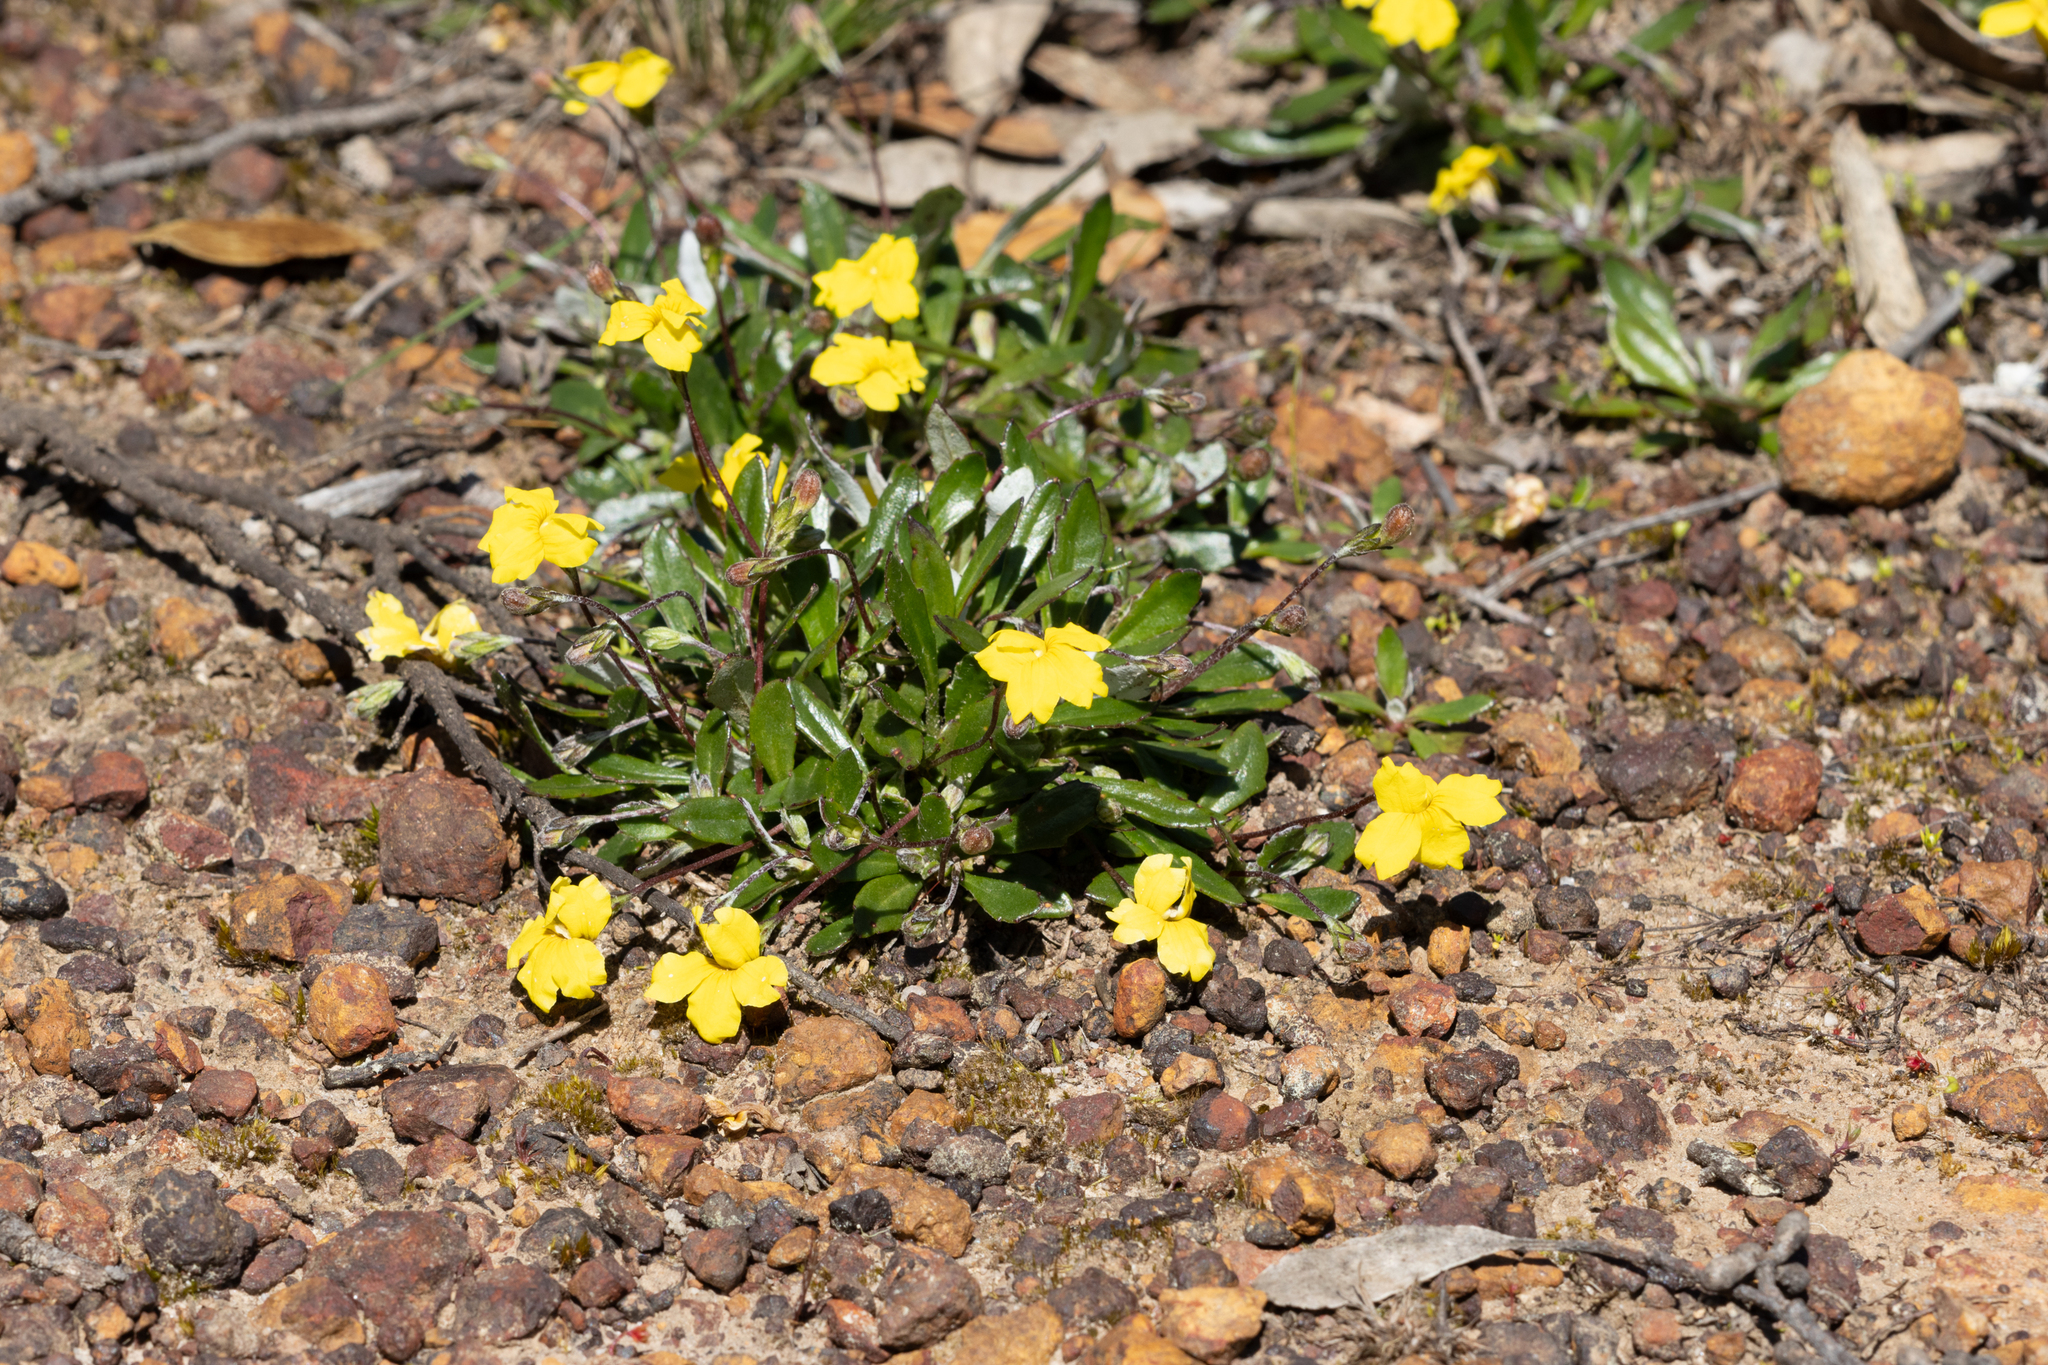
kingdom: Plantae
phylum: Tracheophyta
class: Magnoliopsida
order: Asterales
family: Goodeniaceae
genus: Goodenia
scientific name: Goodenia blackiana
